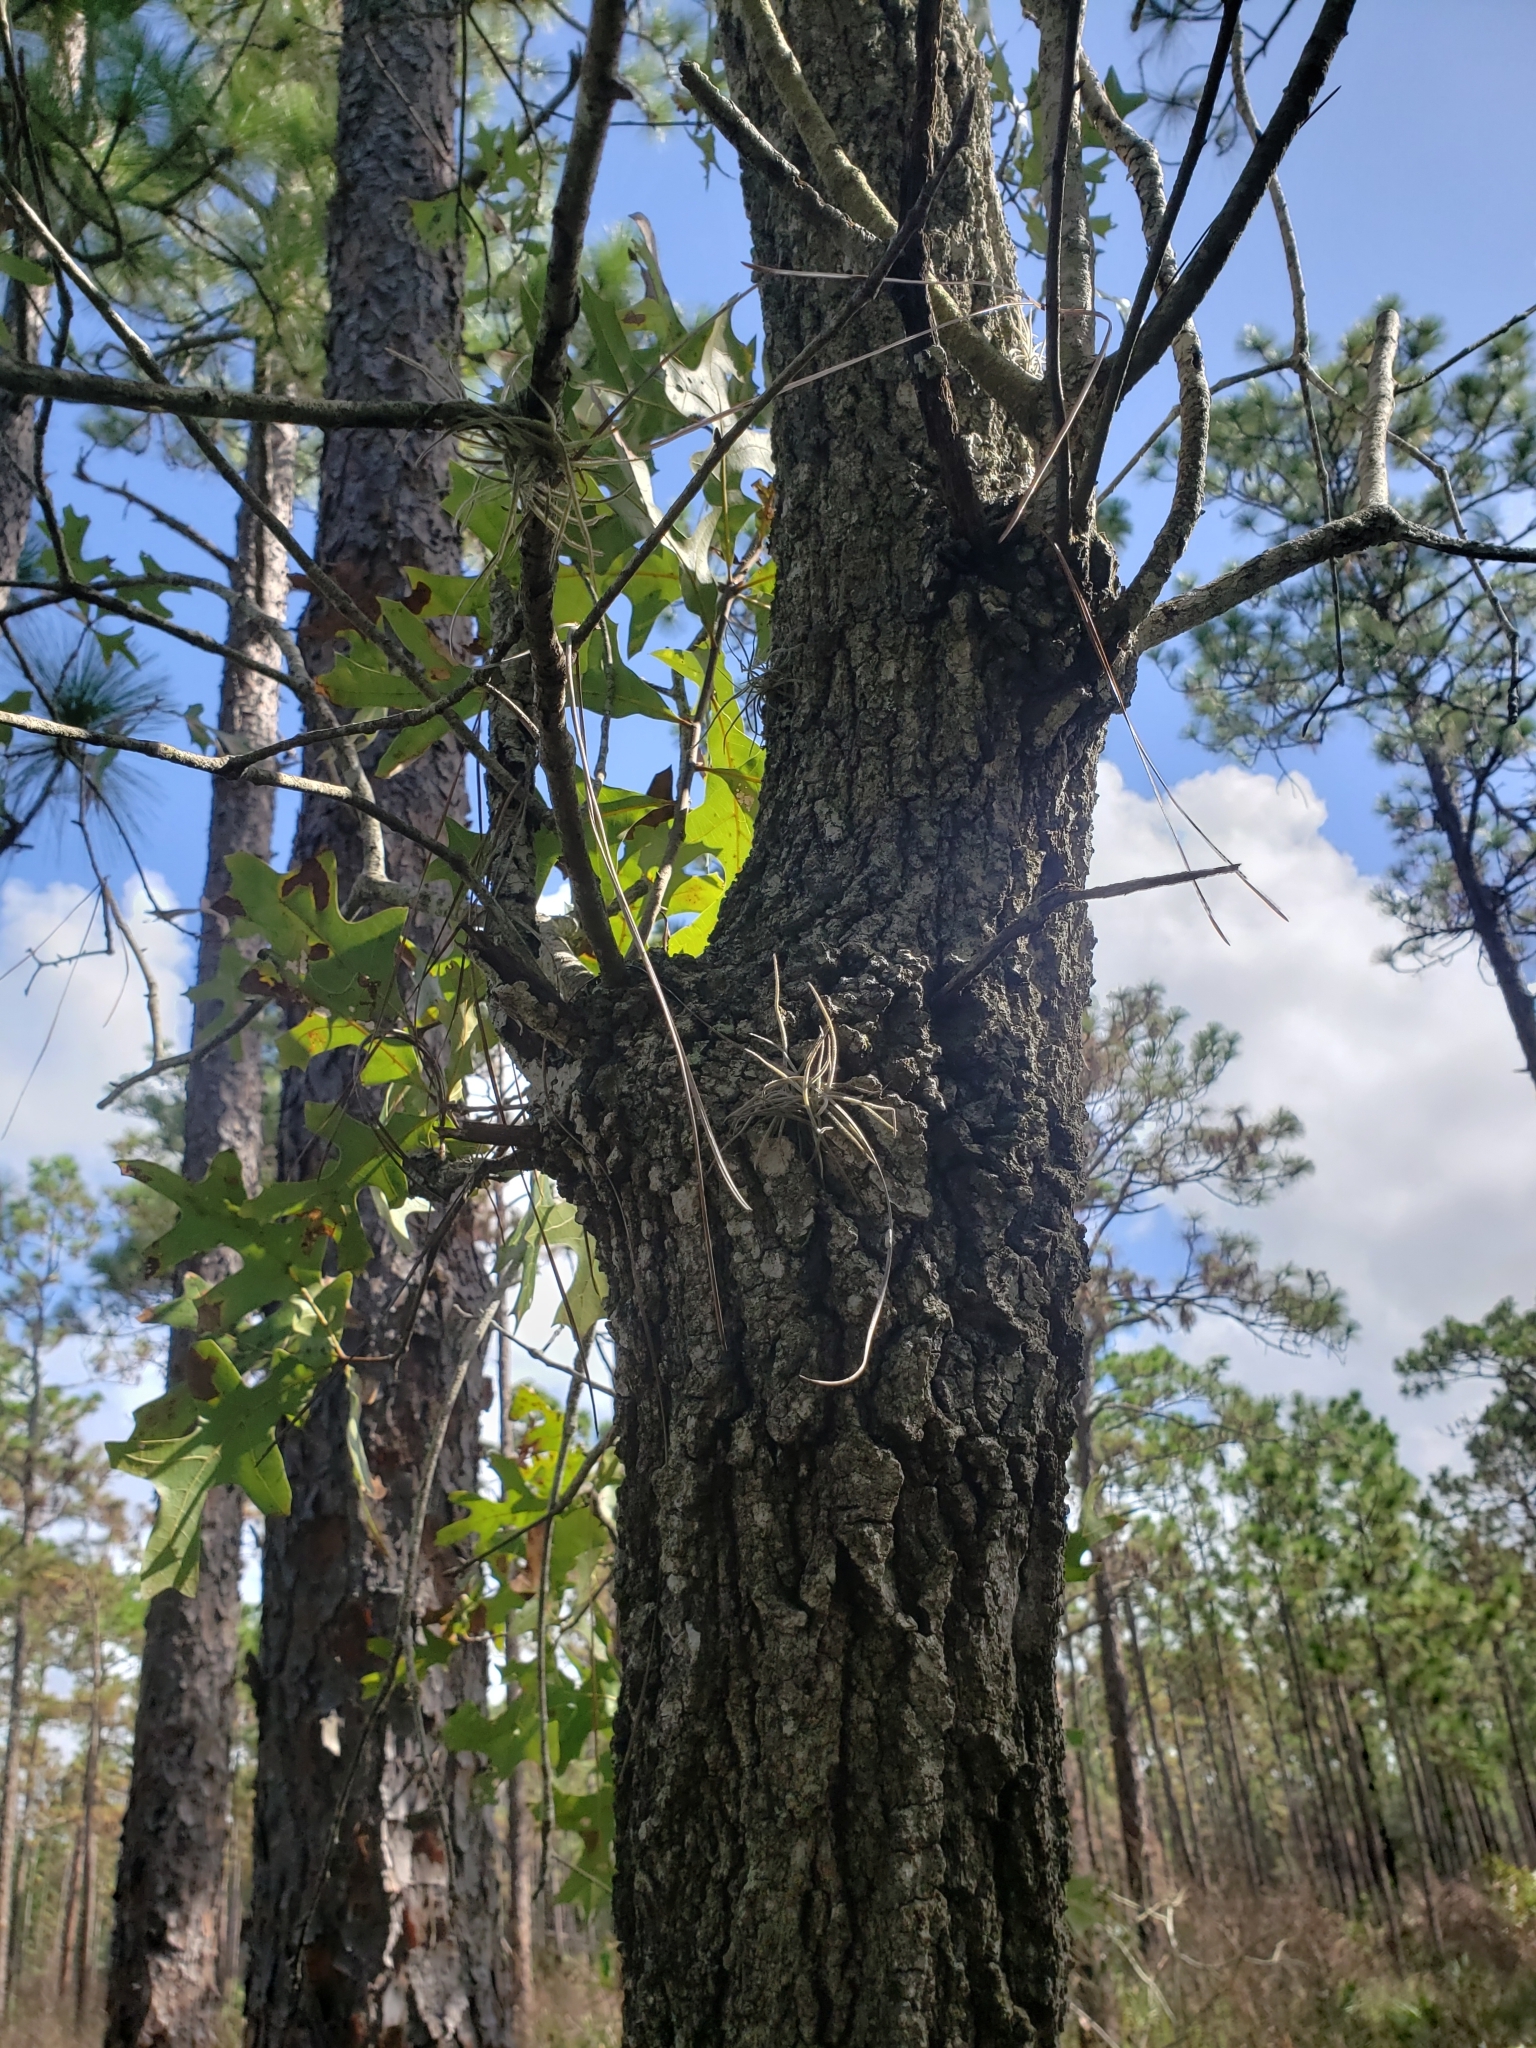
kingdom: Plantae
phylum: Tracheophyta
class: Magnoliopsida
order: Fagales
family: Fagaceae
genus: Quercus
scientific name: Quercus laevis
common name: Turkey oak
